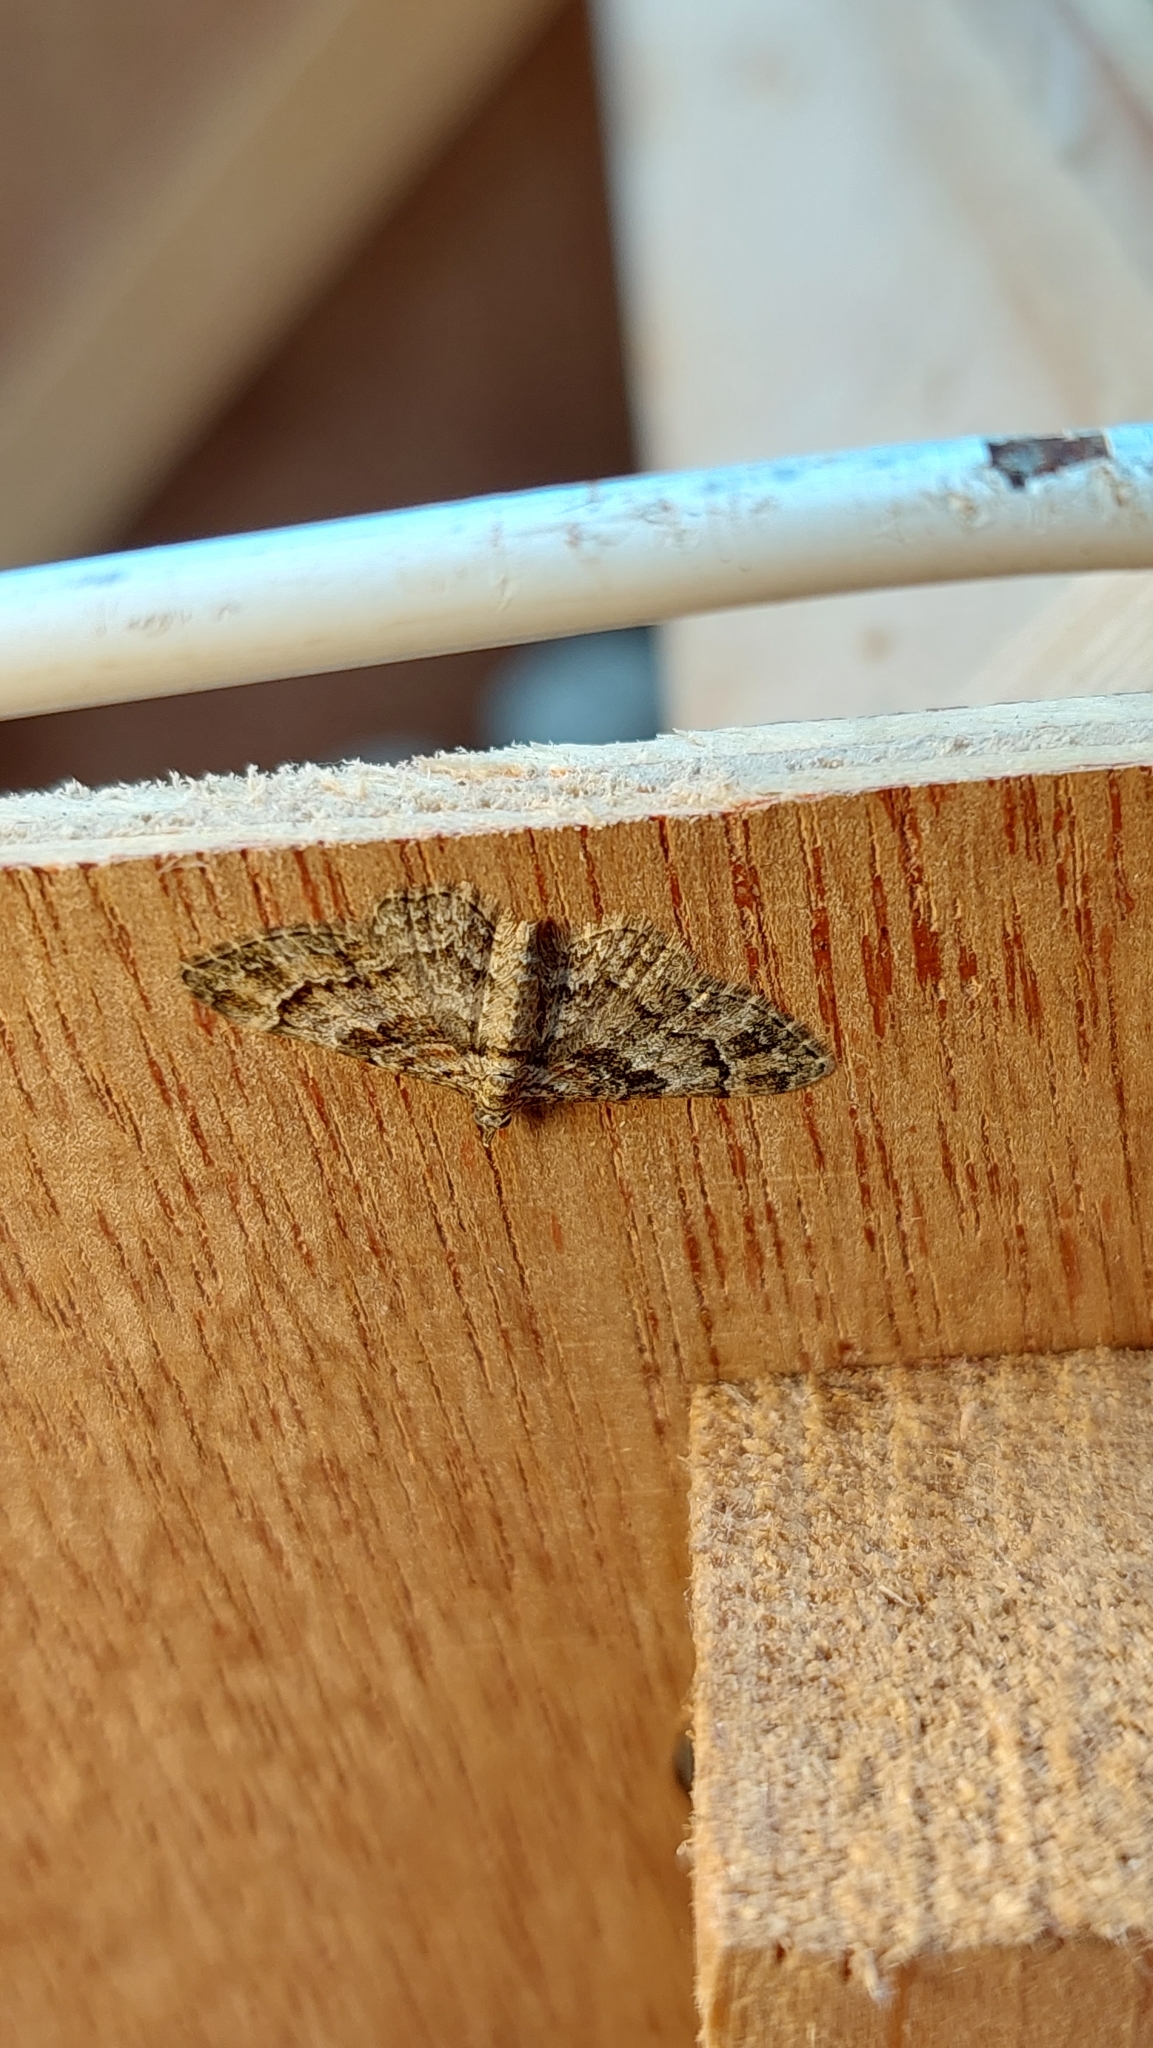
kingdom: Animalia
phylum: Arthropoda
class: Insecta
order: Lepidoptera
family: Geometridae
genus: Gymnoscelis
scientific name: Gymnoscelis rufifasciata
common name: Double-striped pug
